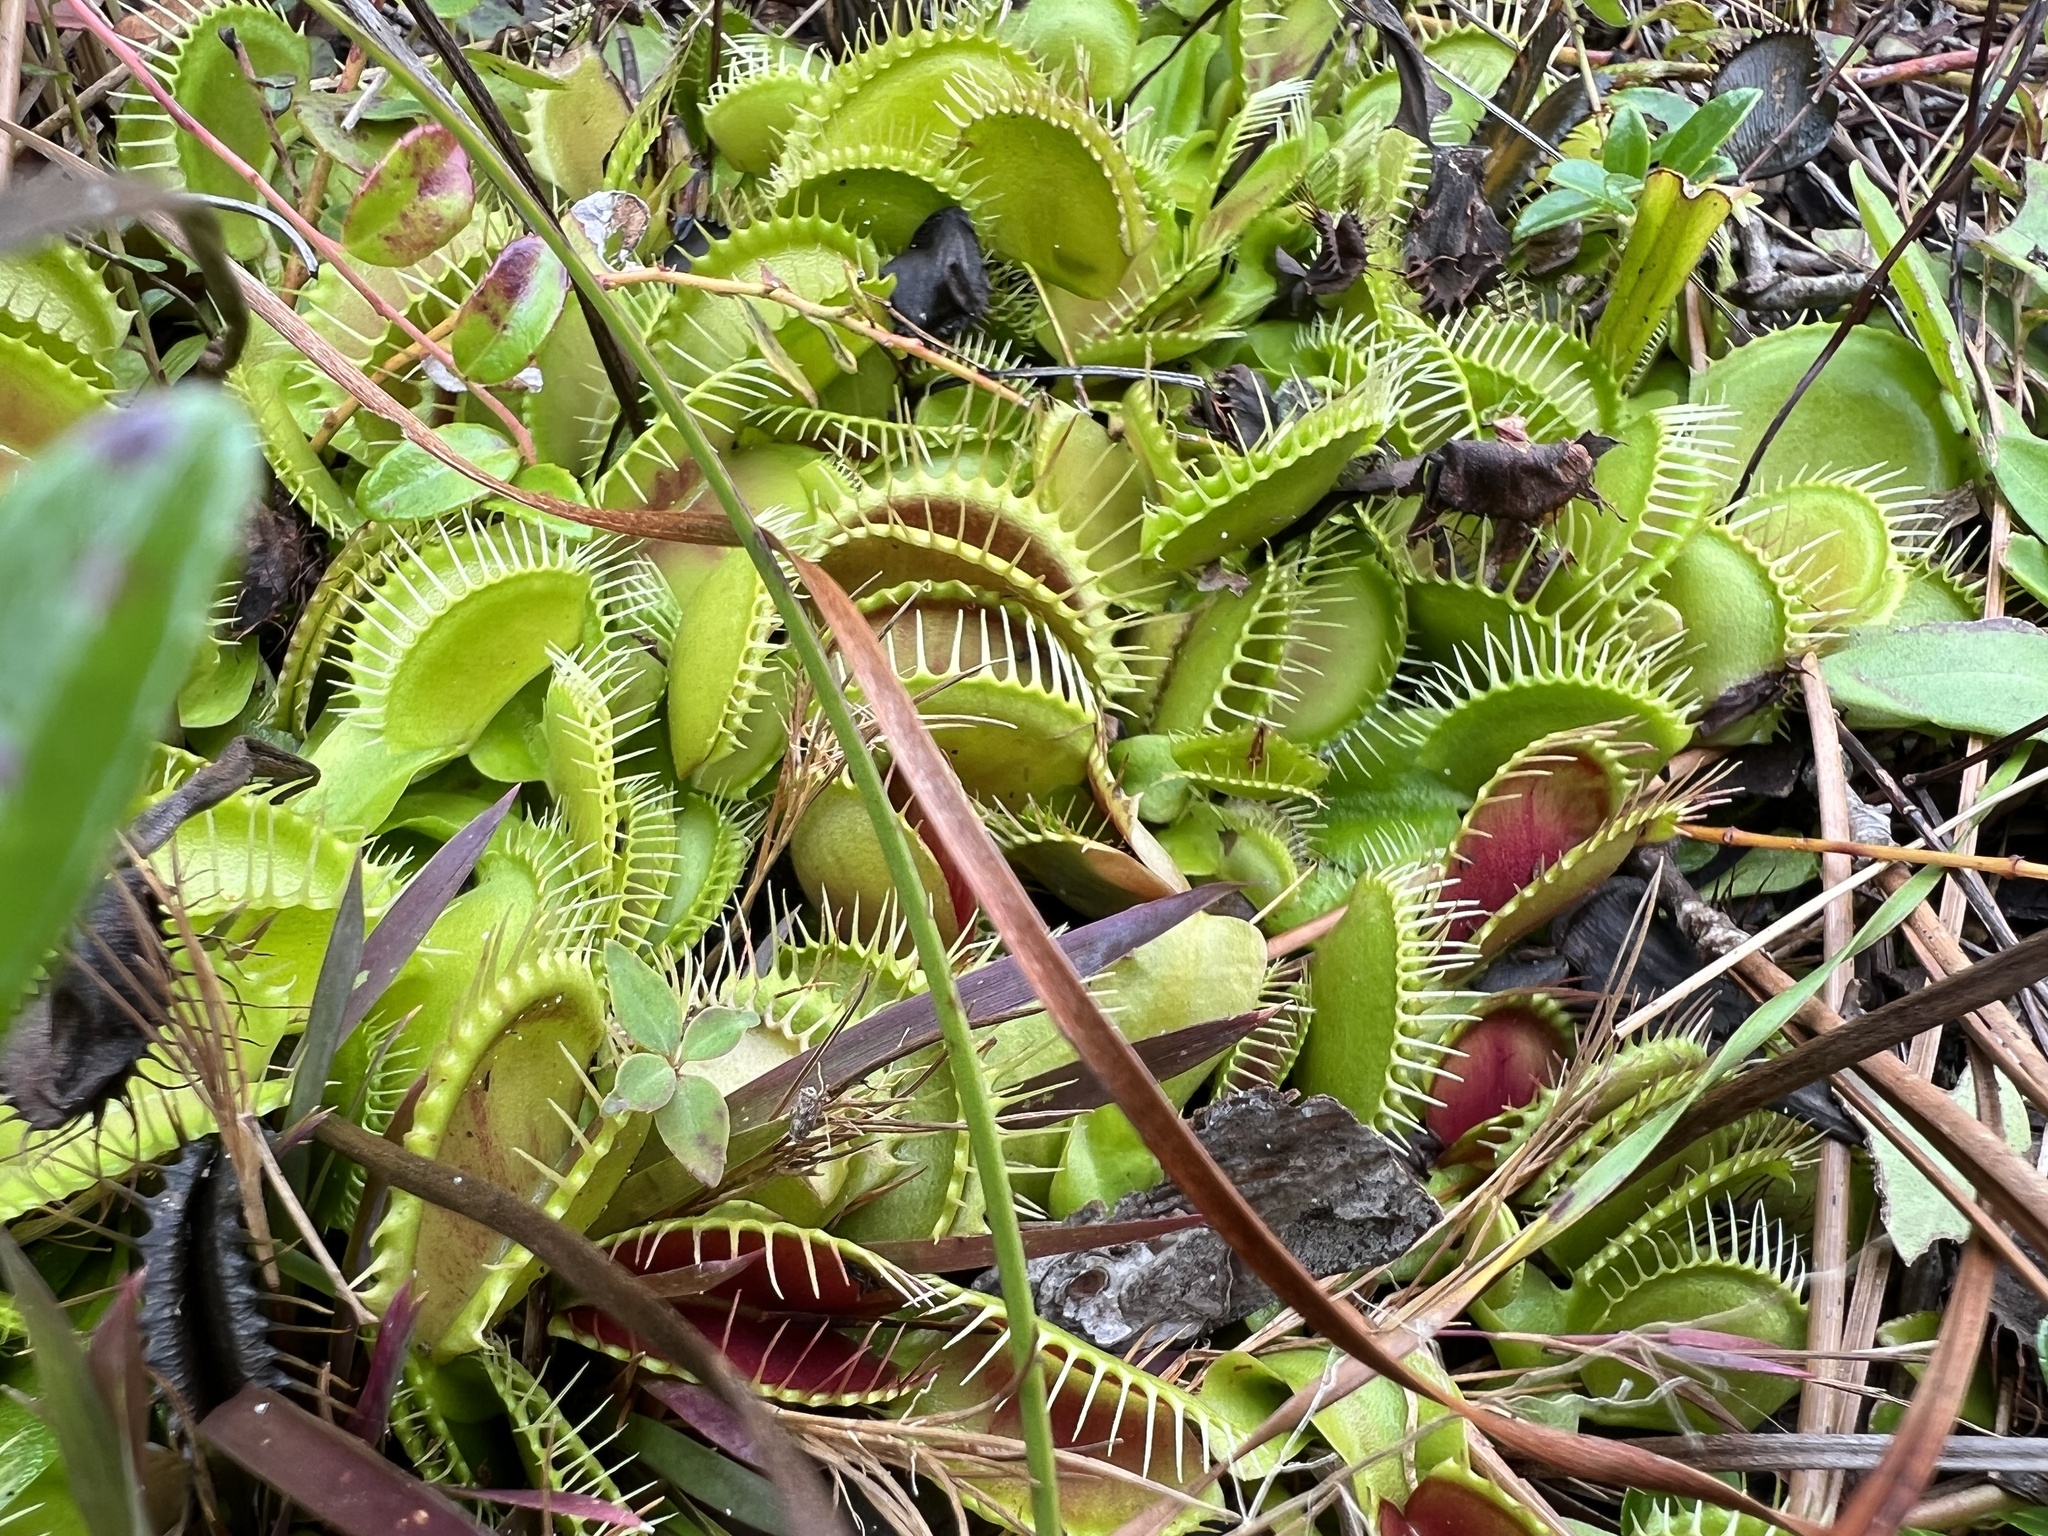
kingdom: Plantae
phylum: Tracheophyta
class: Magnoliopsida
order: Caryophyllales
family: Droseraceae
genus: Dionaea
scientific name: Dionaea muscipula
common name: Venus flytrap
